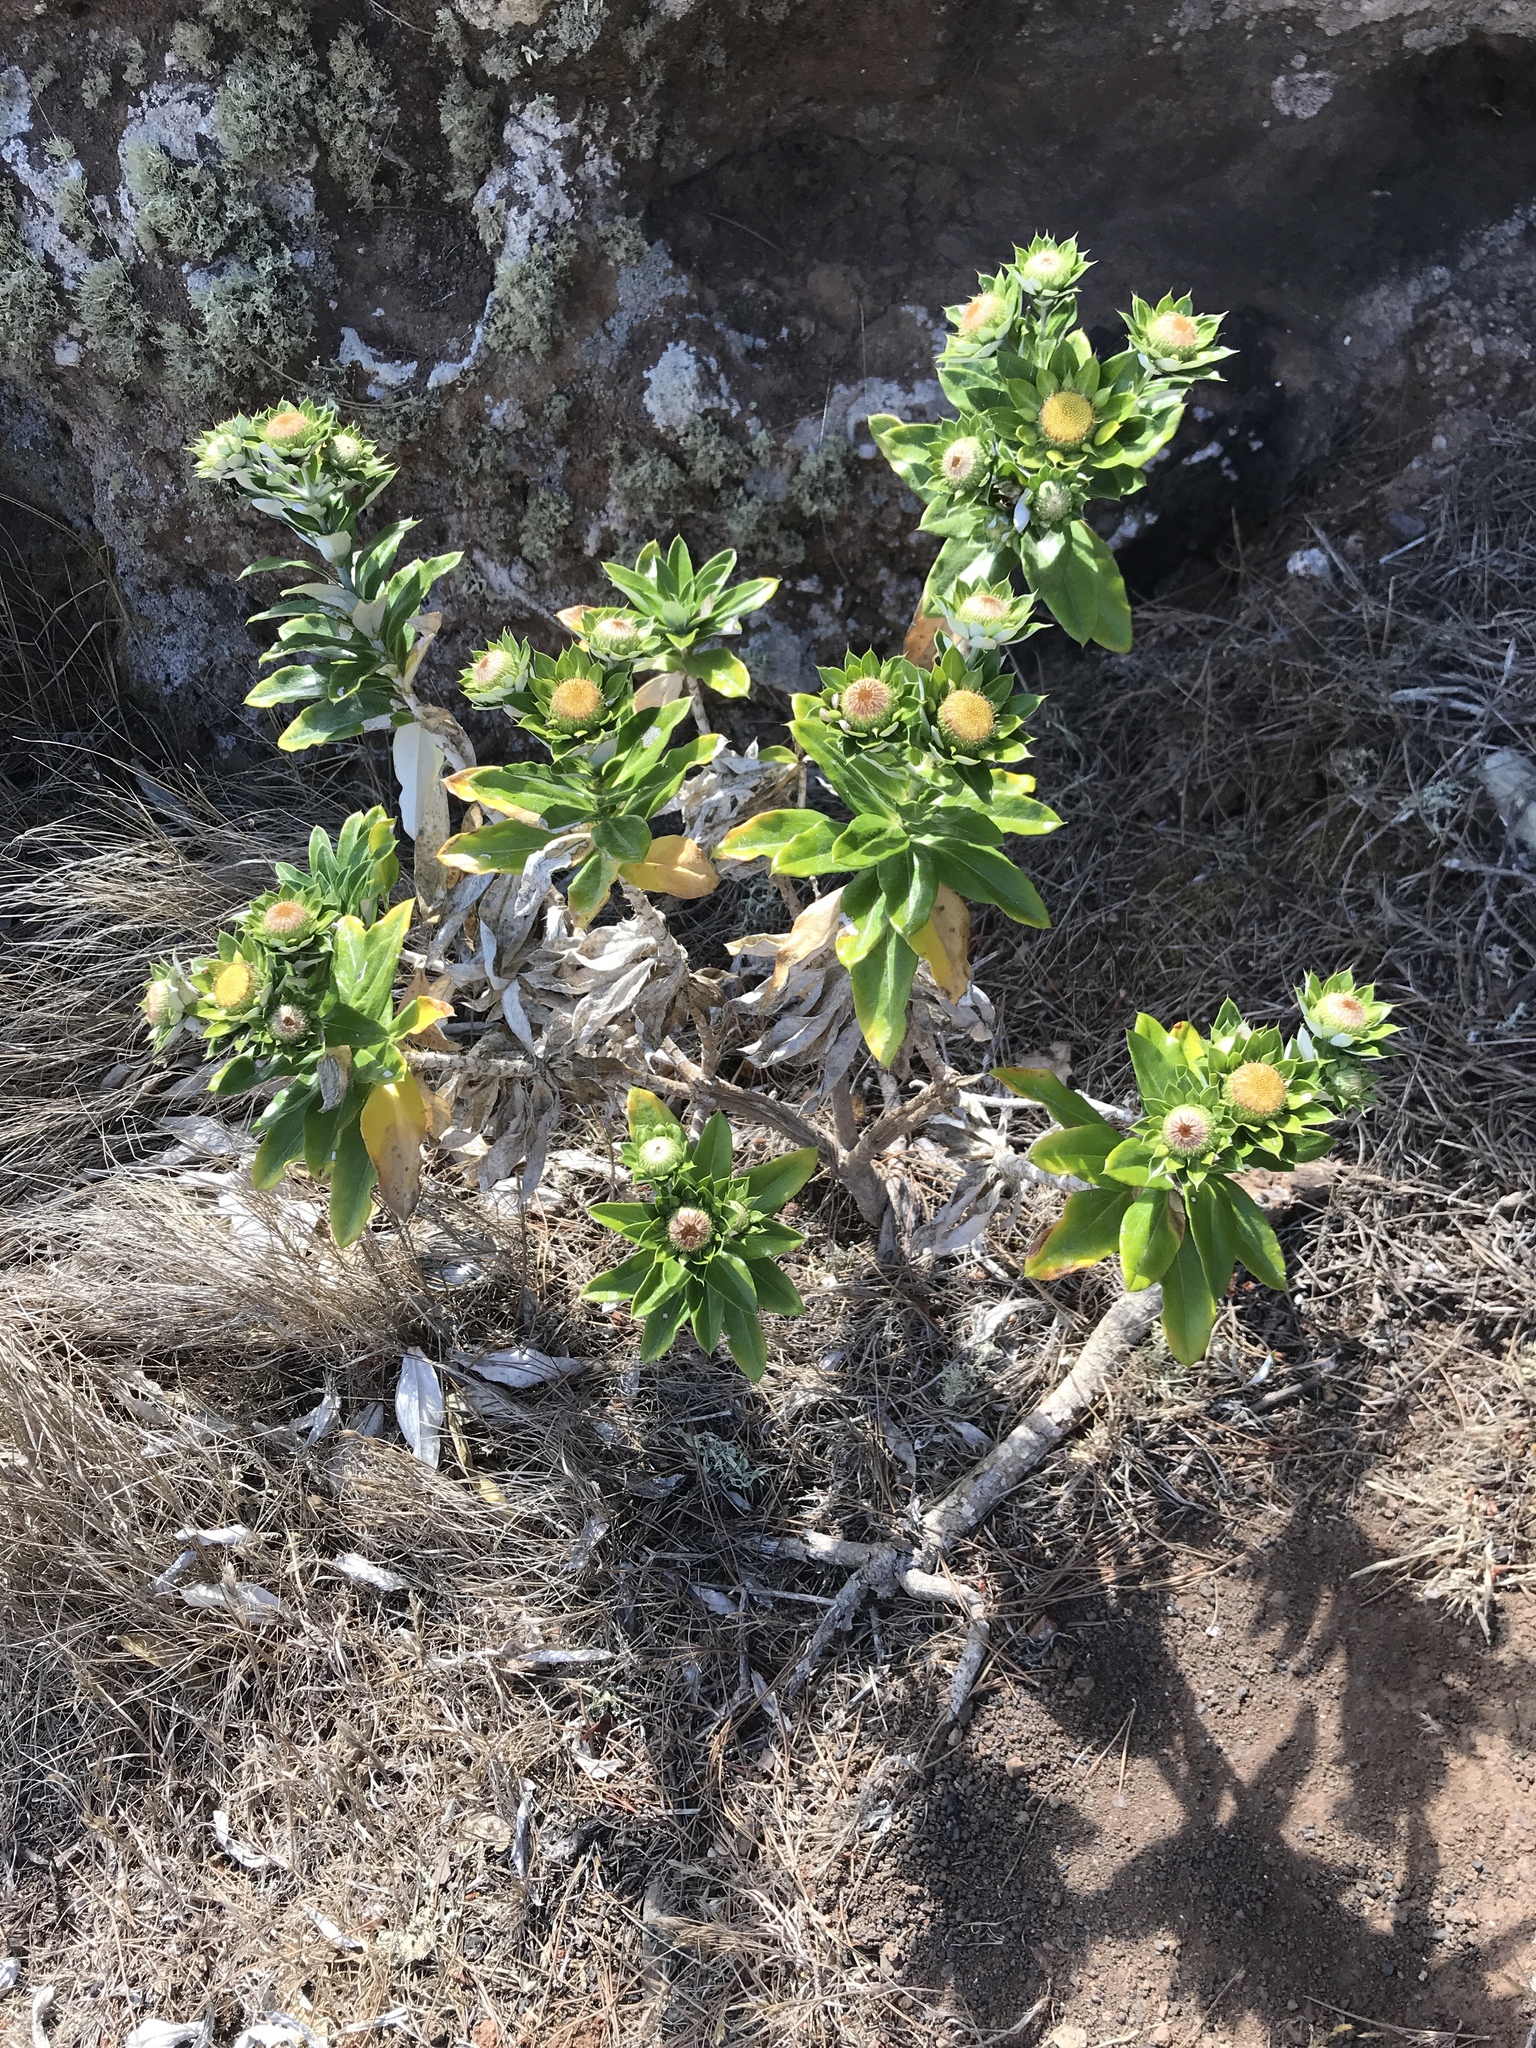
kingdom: Plantae
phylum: Tracheophyta
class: Magnoliopsida
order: Asterales
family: Asteraceae
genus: Carlina
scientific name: Carlina salicifolia
